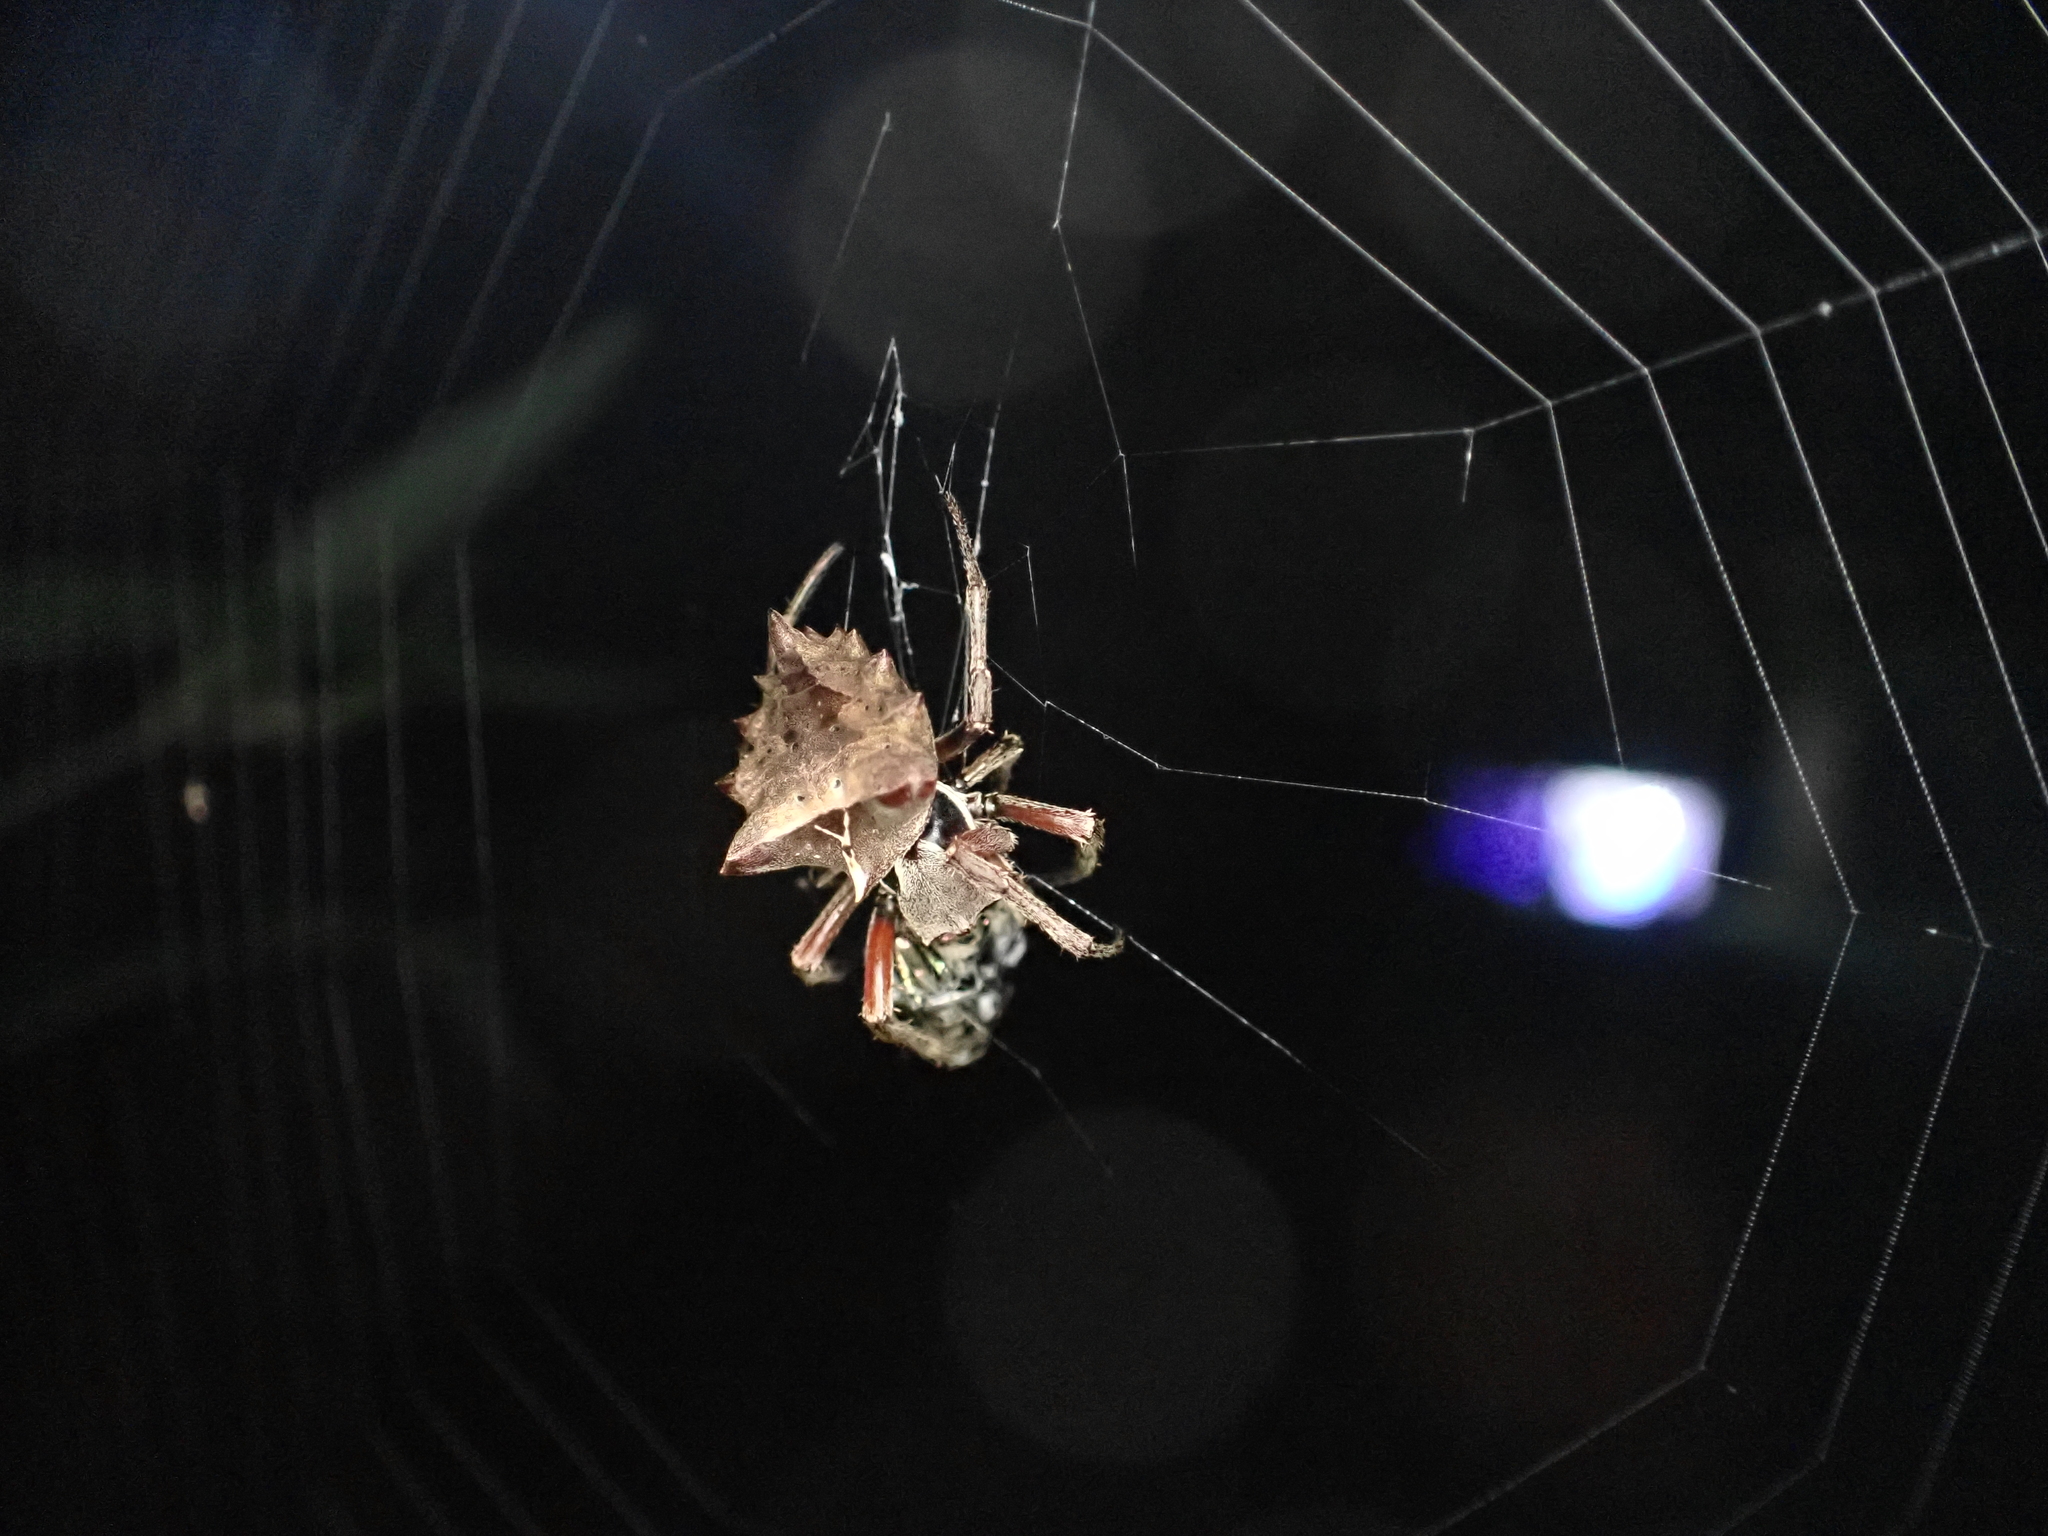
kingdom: Animalia
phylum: Arthropoda
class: Arachnida
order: Araneae
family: Araneidae
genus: Acanthepeira
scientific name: Acanthepeira stellata
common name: Starbellied orbweaver
